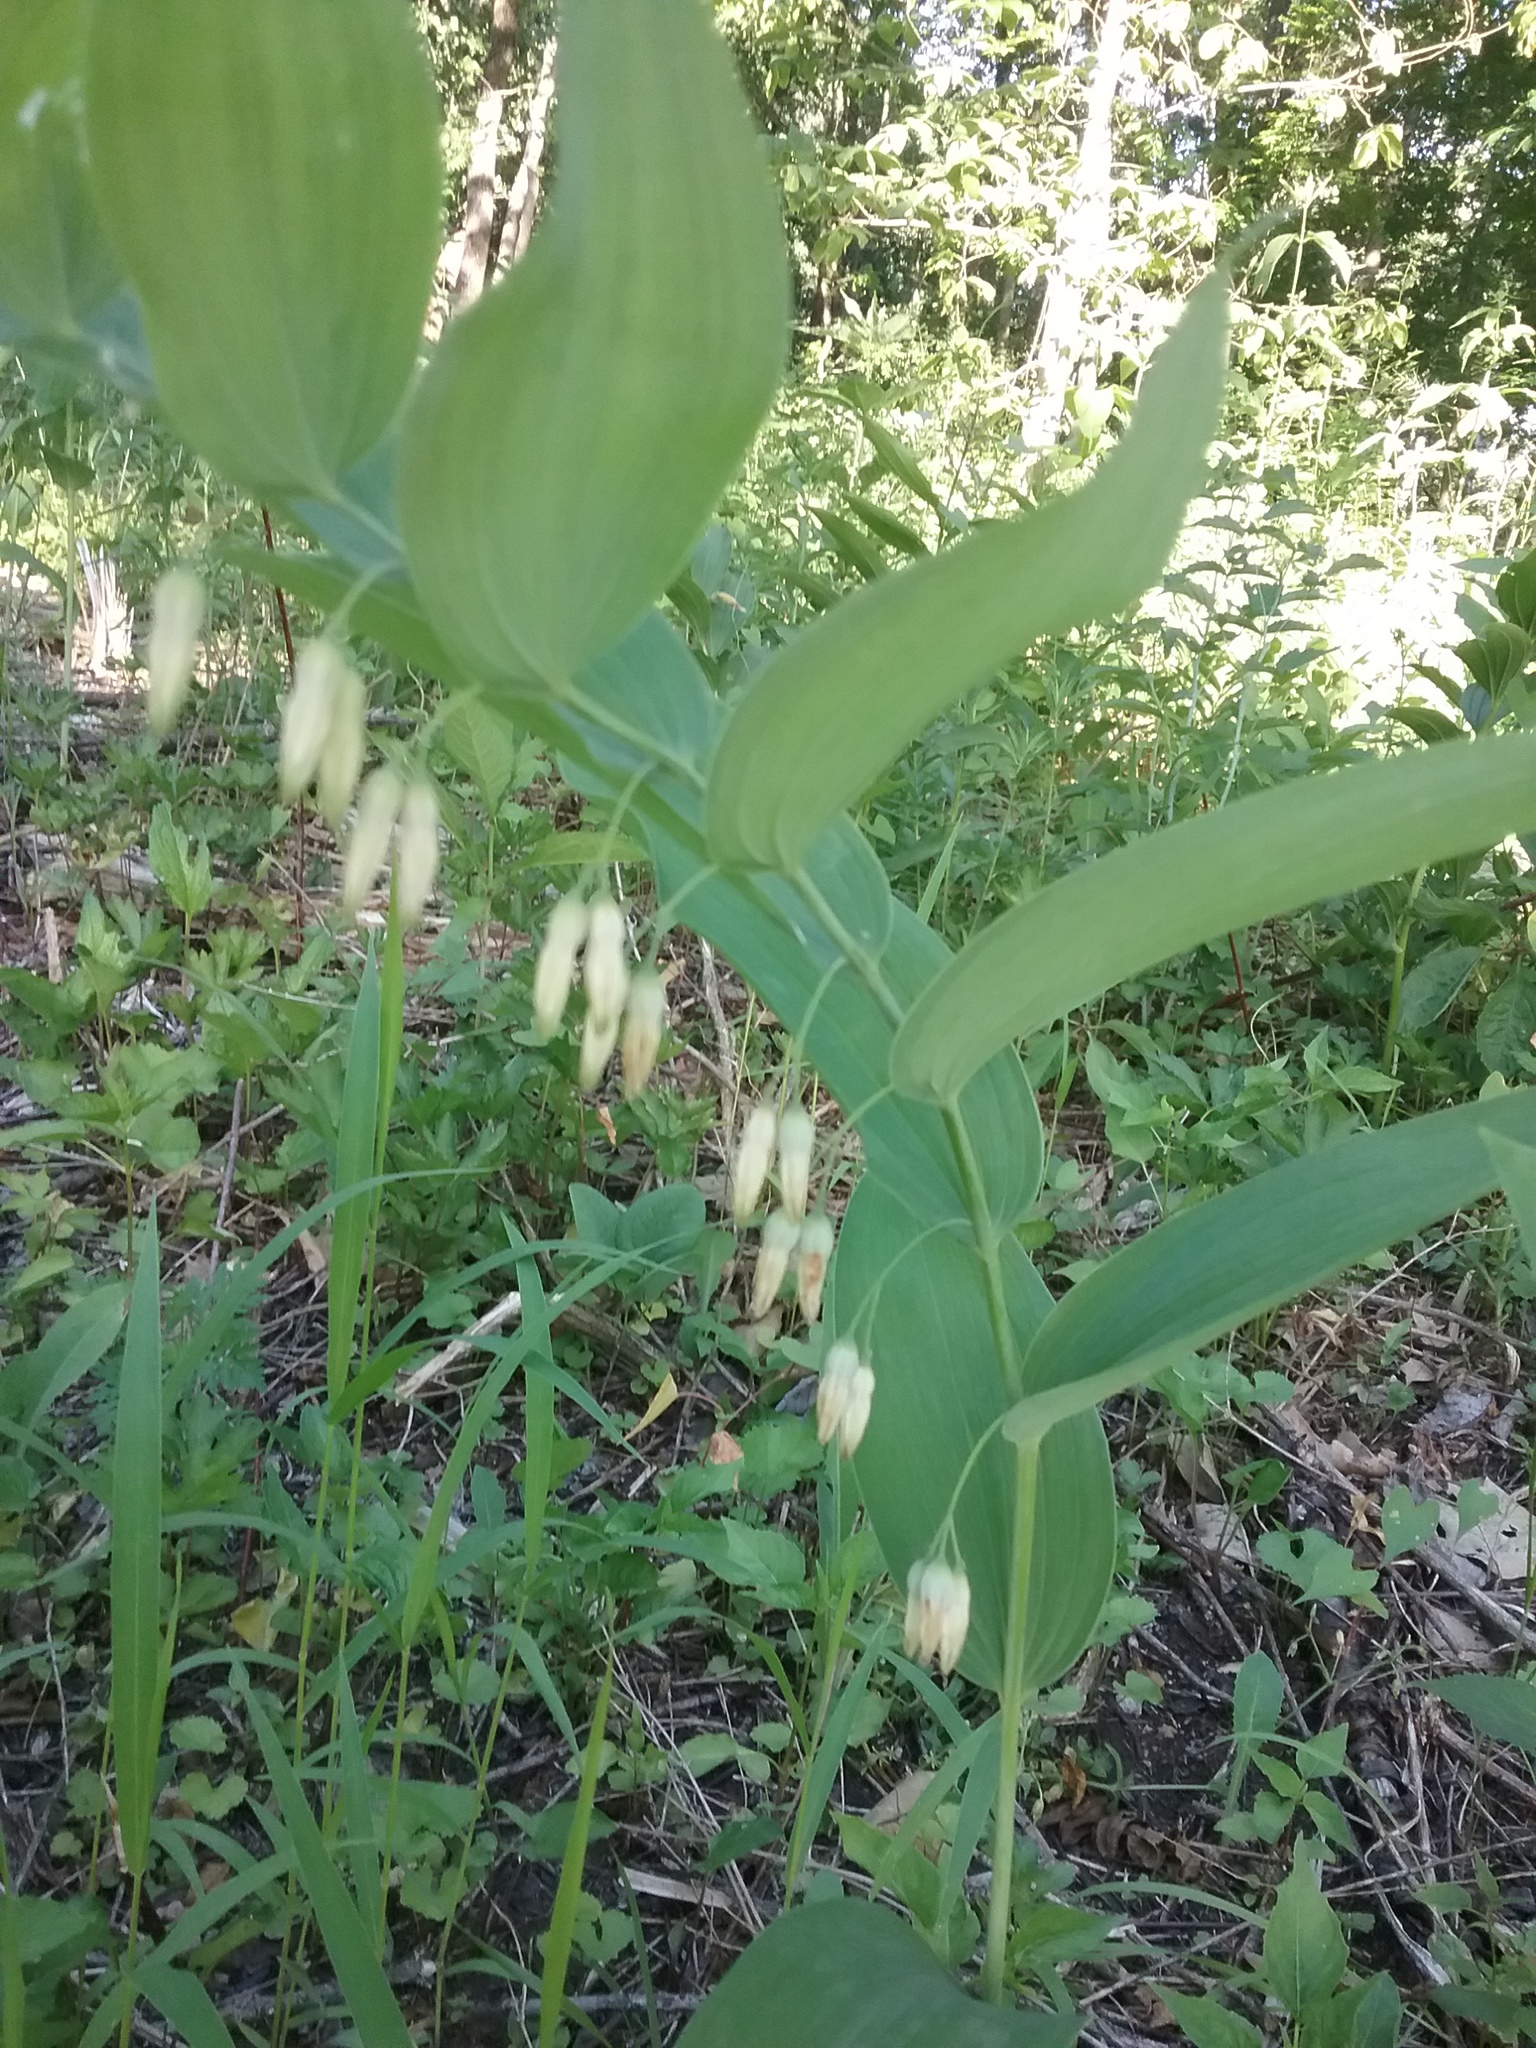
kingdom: Plantae
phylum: Tracheophyta
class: Liliopsida
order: Asparagales
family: Asparagaceae
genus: Polygonatum
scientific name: Polygonatum biflorum
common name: American solomon's-seal
